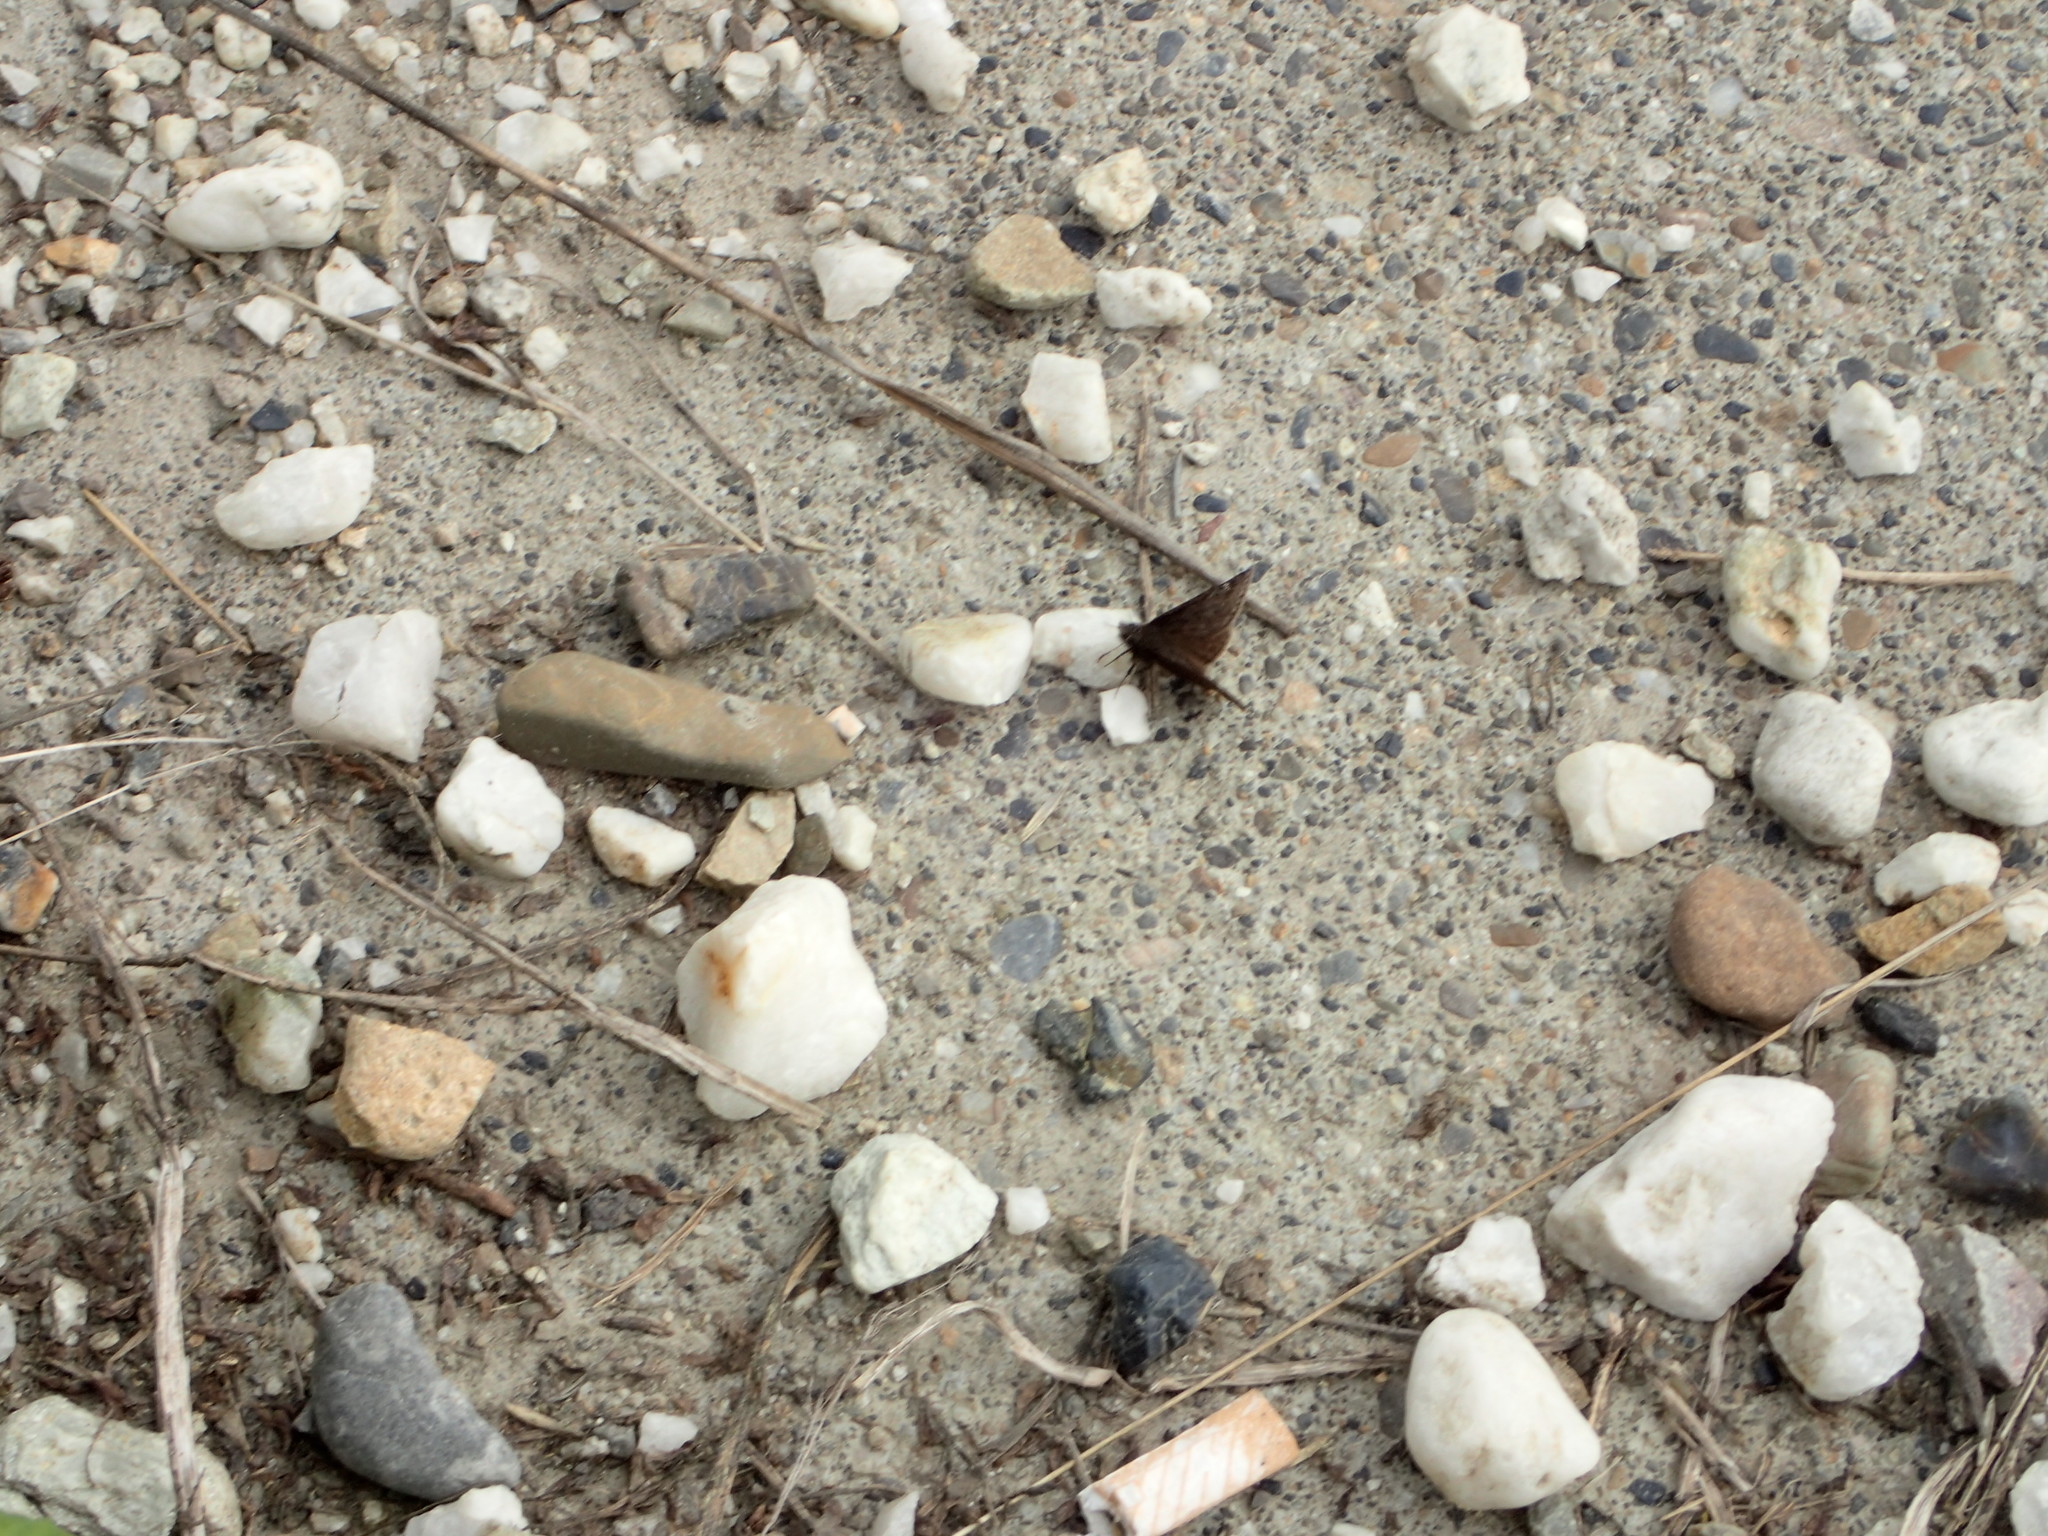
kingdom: Animalia
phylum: Arthropoda
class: Insecta
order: Lepidoptera
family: Hesperiidae
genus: Erynnis
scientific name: Erynnis persius
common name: Persius duskywing
